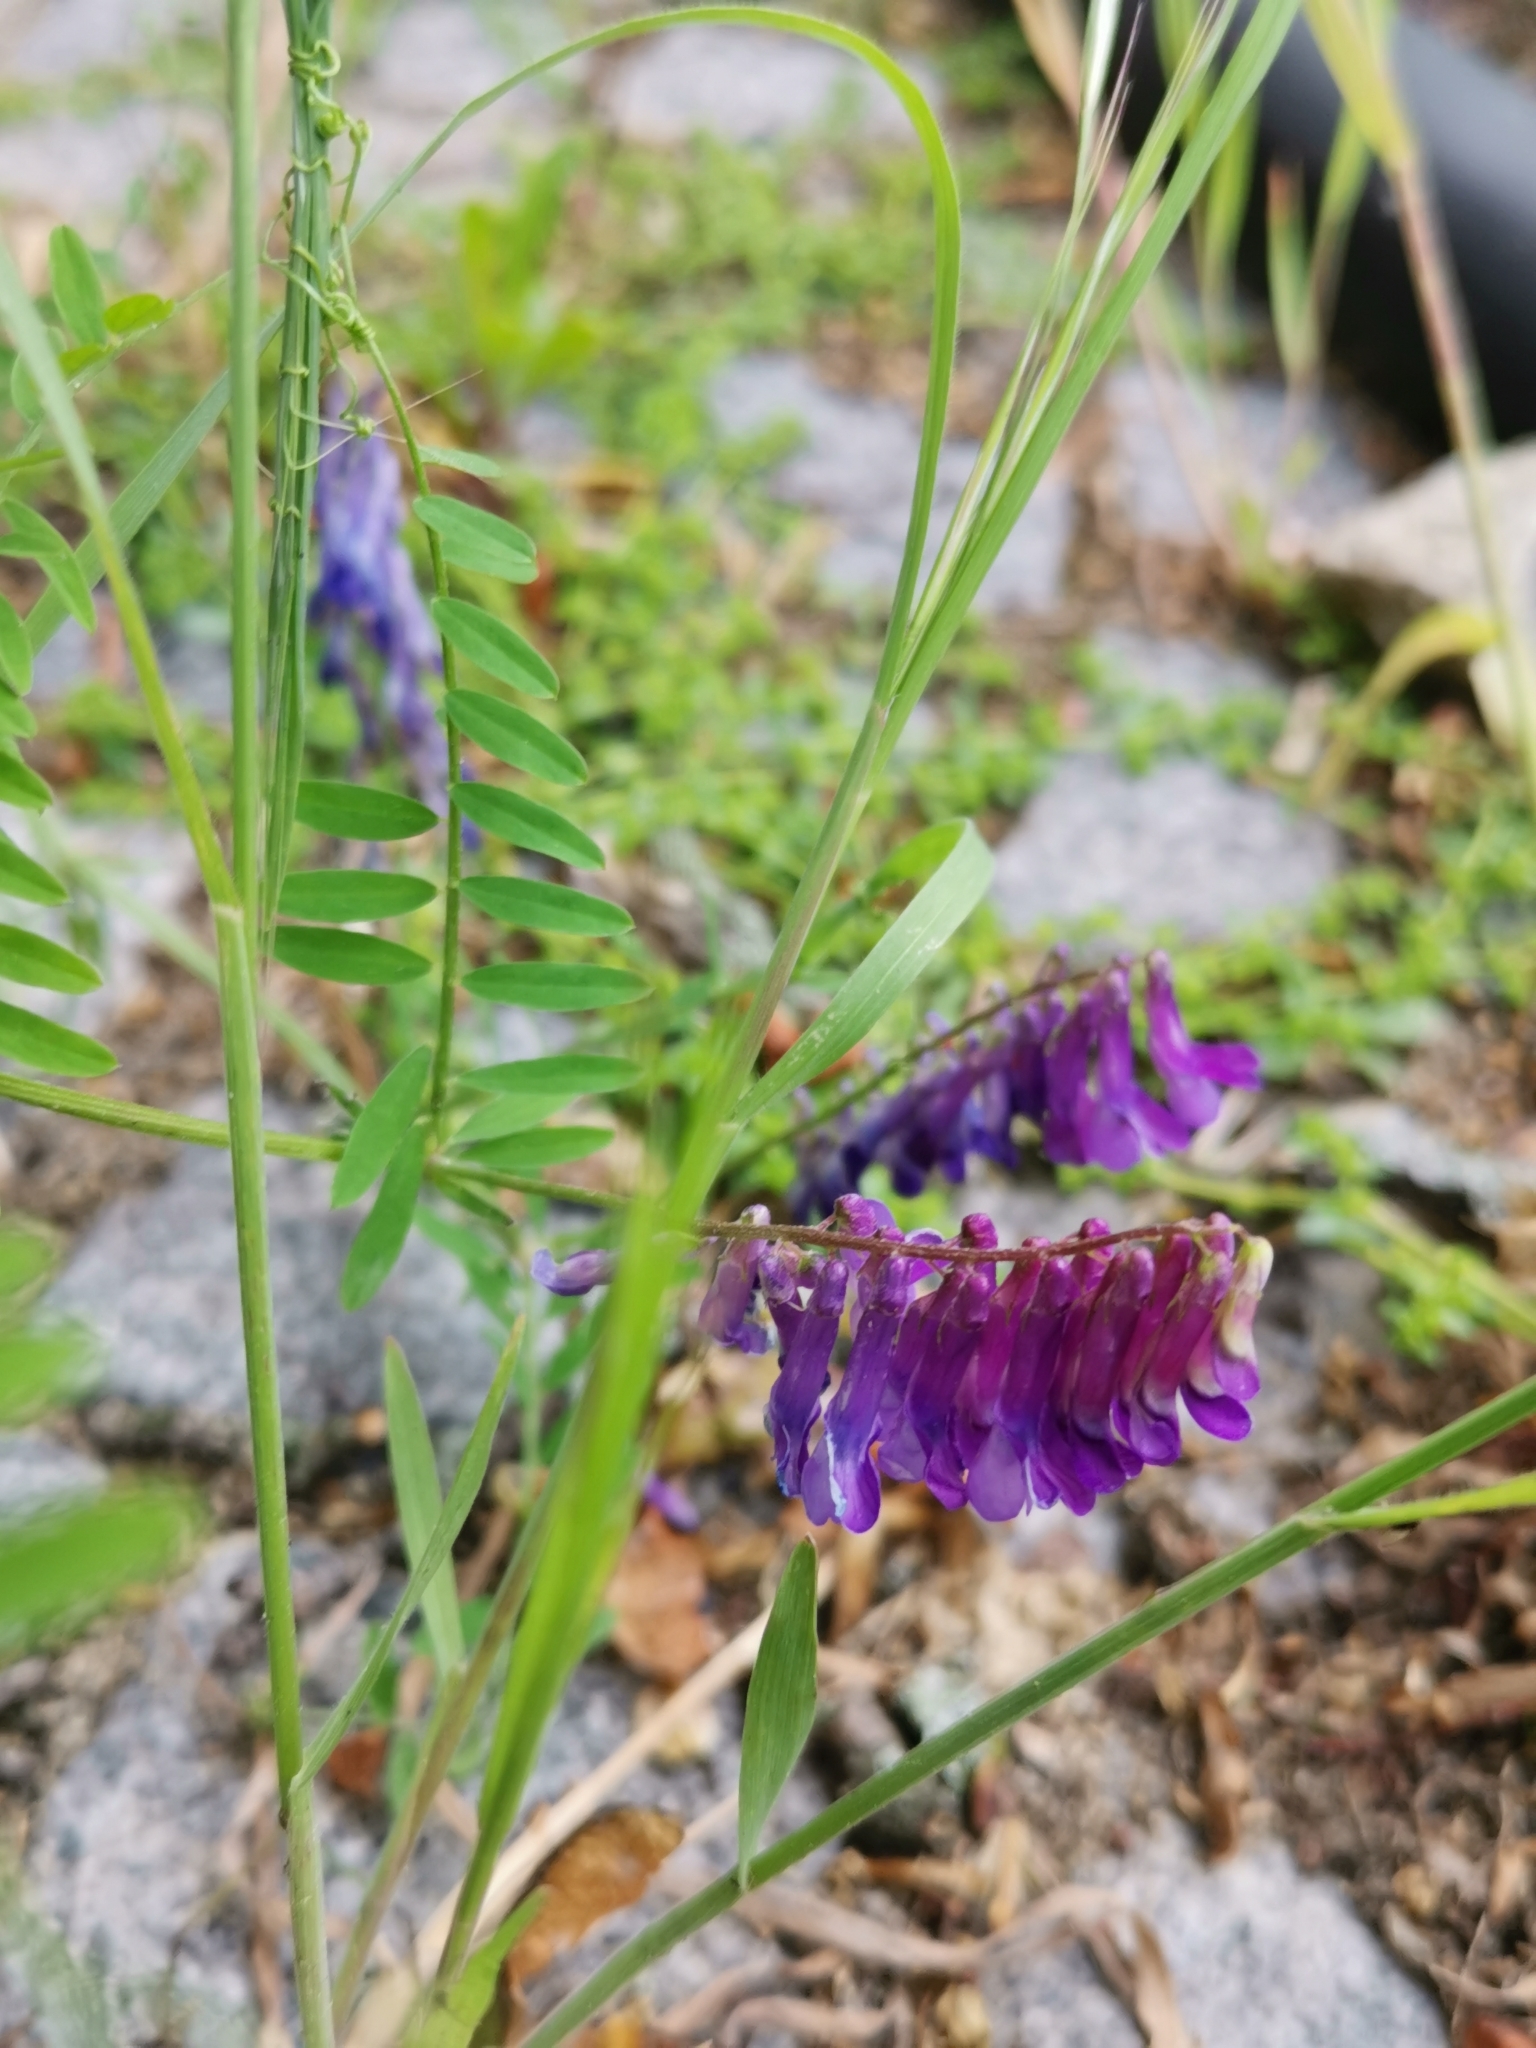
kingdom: Plantae
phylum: Tracheophyta
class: Magnoliopsida
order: Fabales
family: Fabaceae
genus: Vicia
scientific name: Vicia villosa
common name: Fodder vetch
